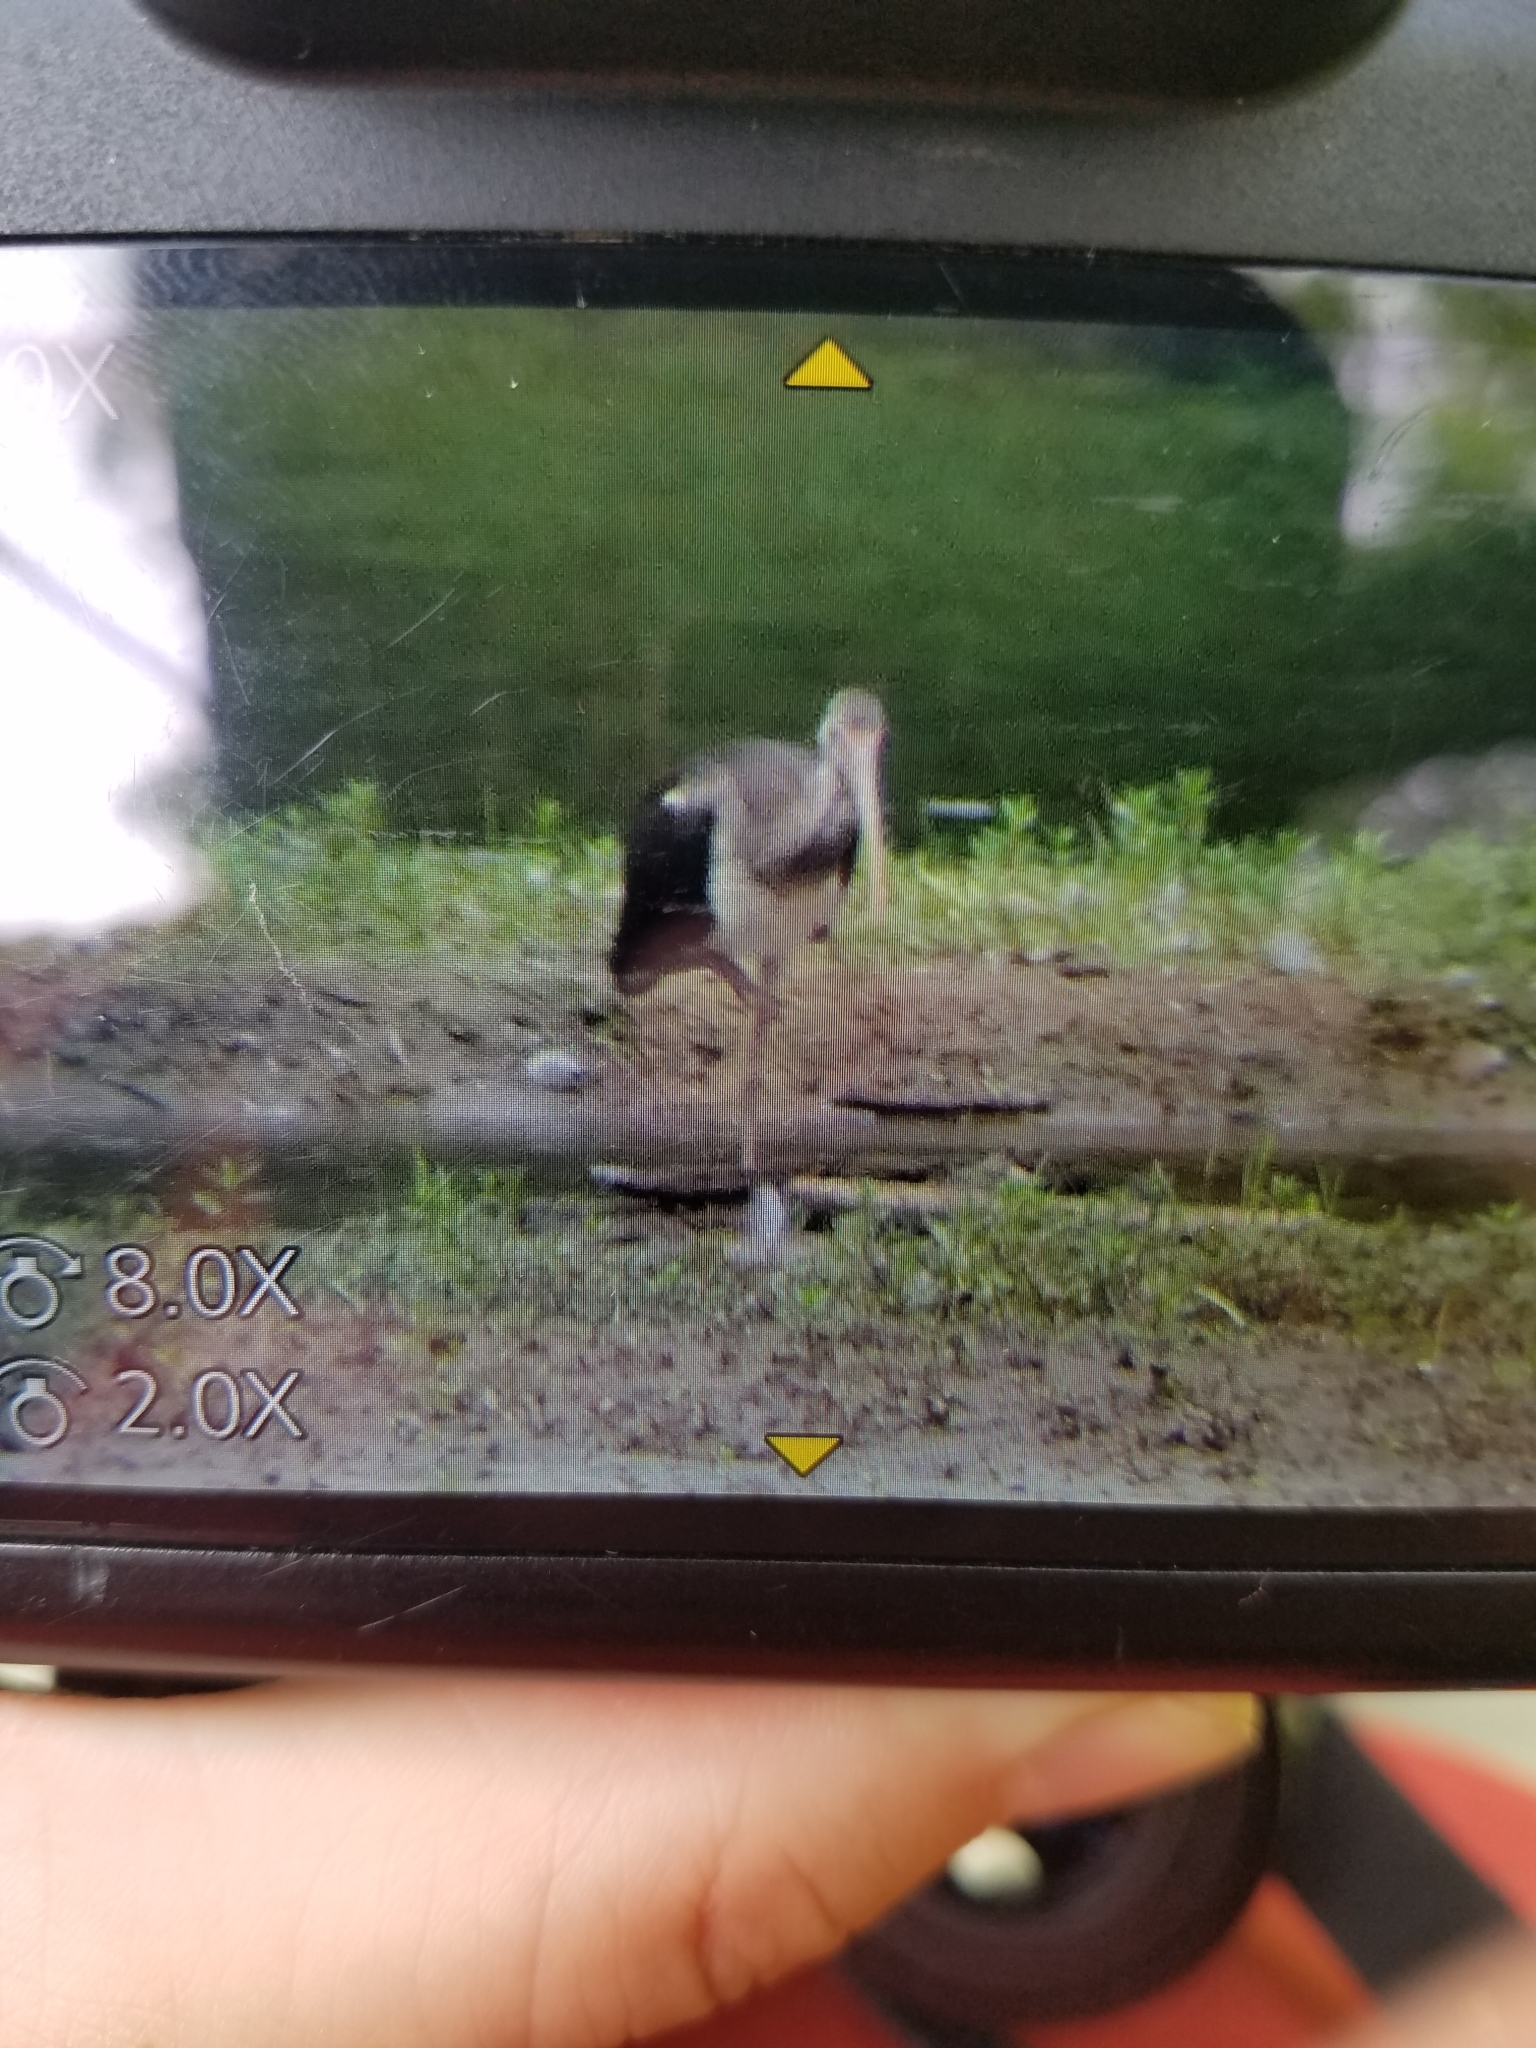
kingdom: Animalia
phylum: Chordata
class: Aves
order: Pelecaniformes
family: Threskiornithidae
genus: Eudocimus
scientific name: Eudocimus albus
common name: White ibis
